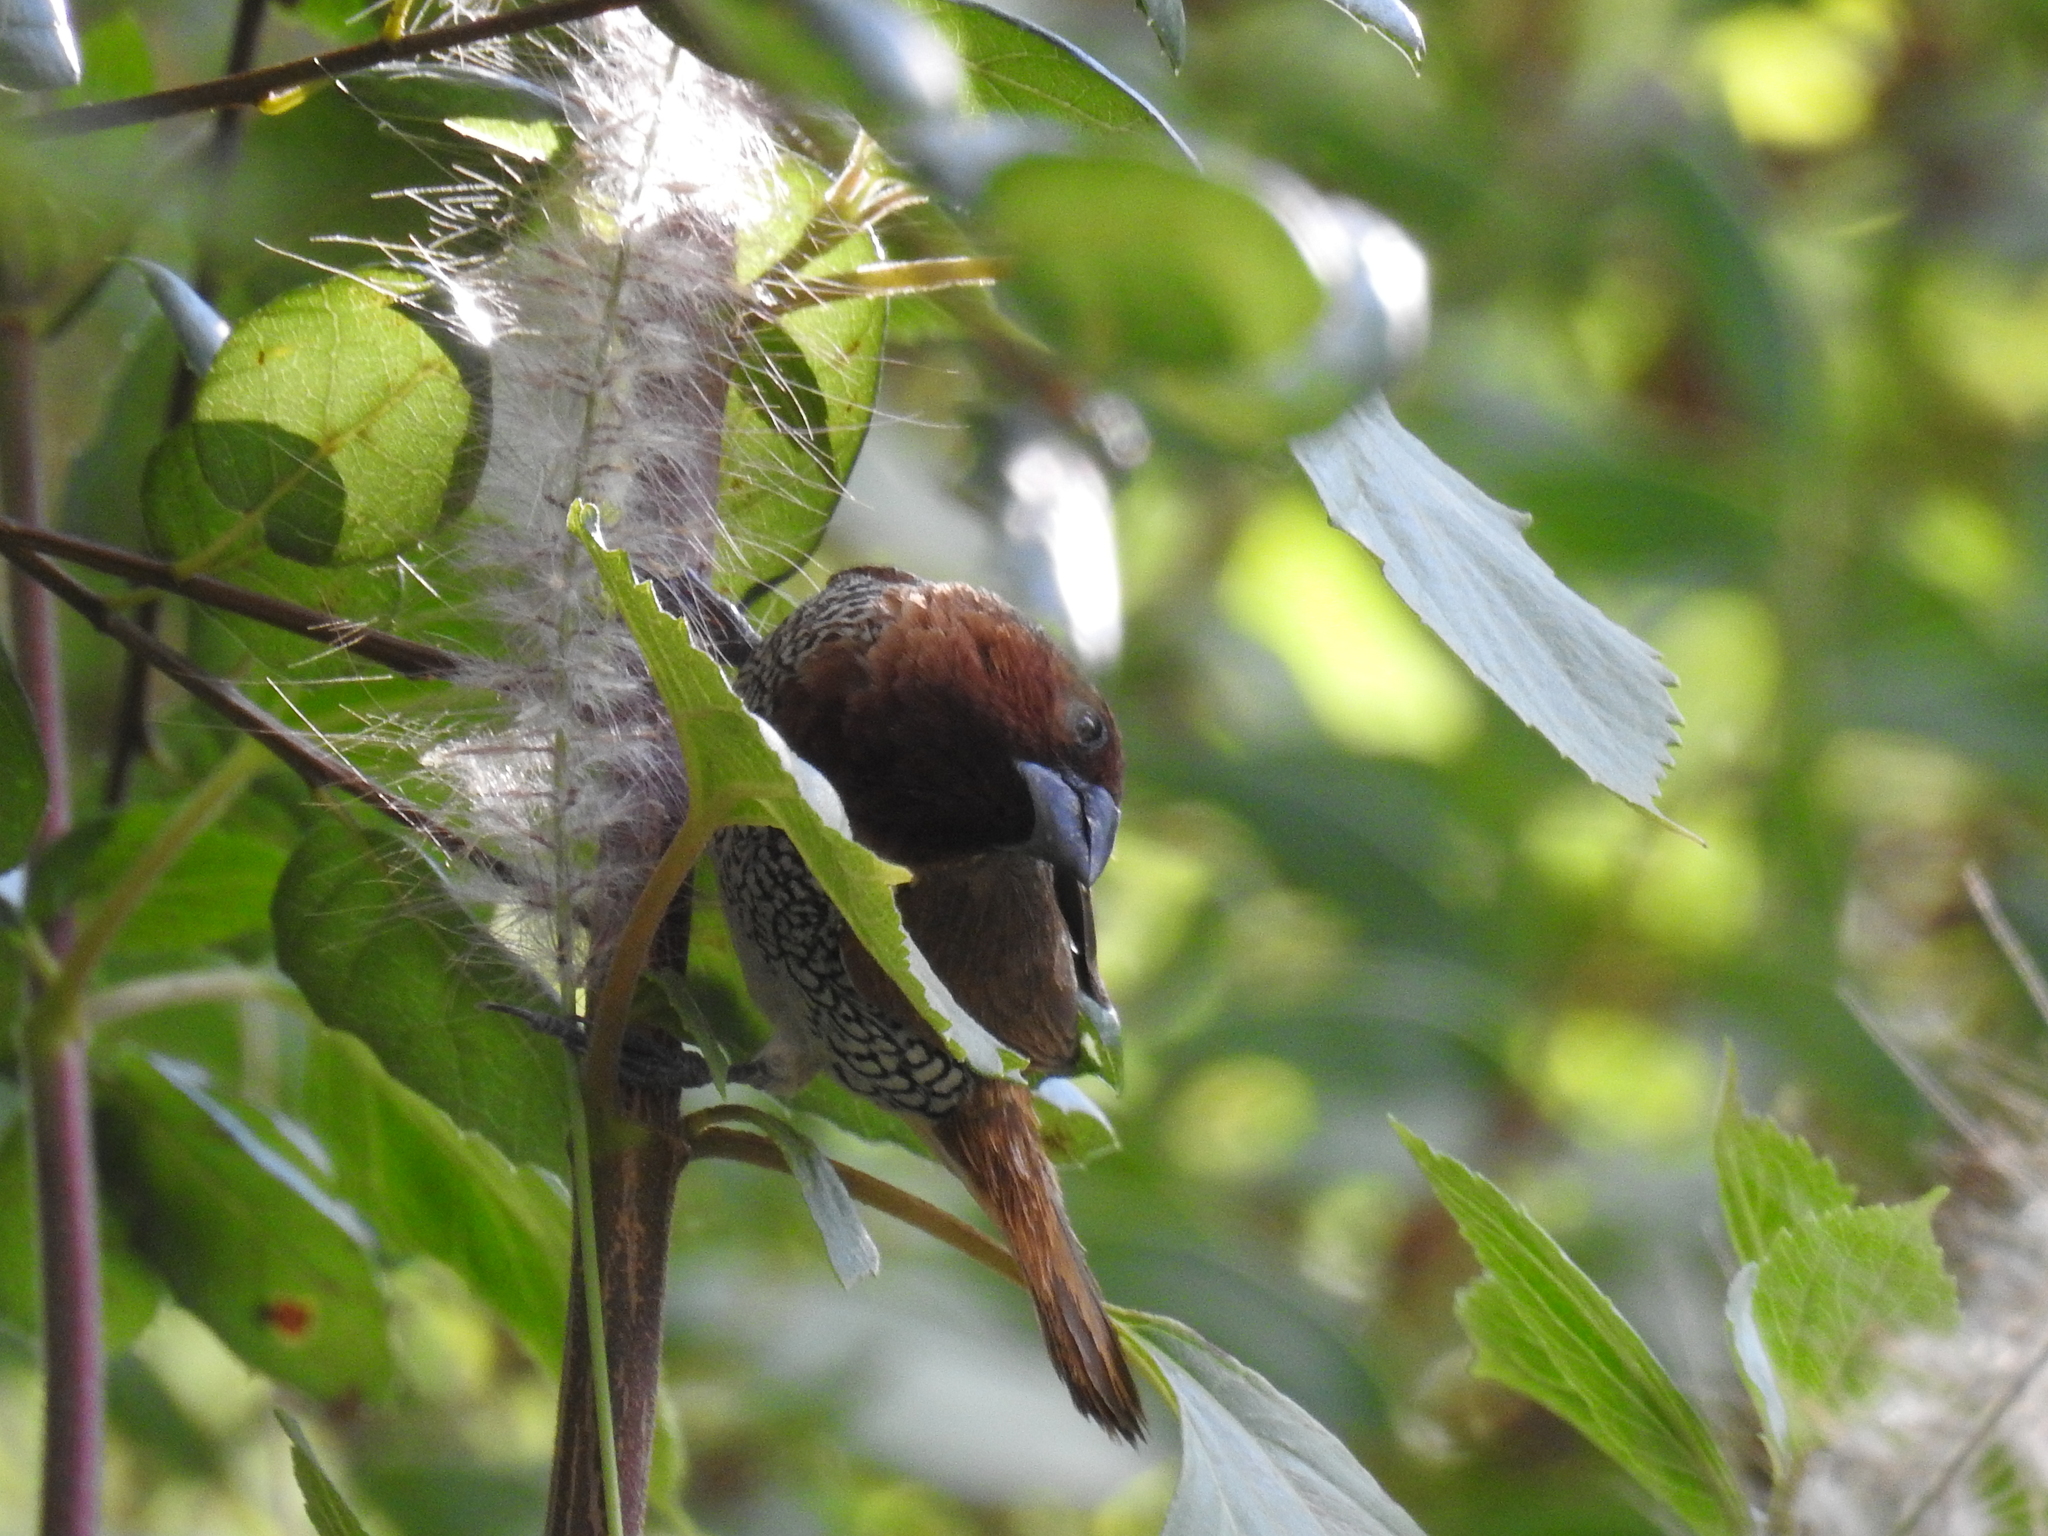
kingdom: Animalia
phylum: Chordata
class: Aves
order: Passeriformes
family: Estrildidae
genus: Lonchura
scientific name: Lonchura punctulata
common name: Scaly-breasted munia
